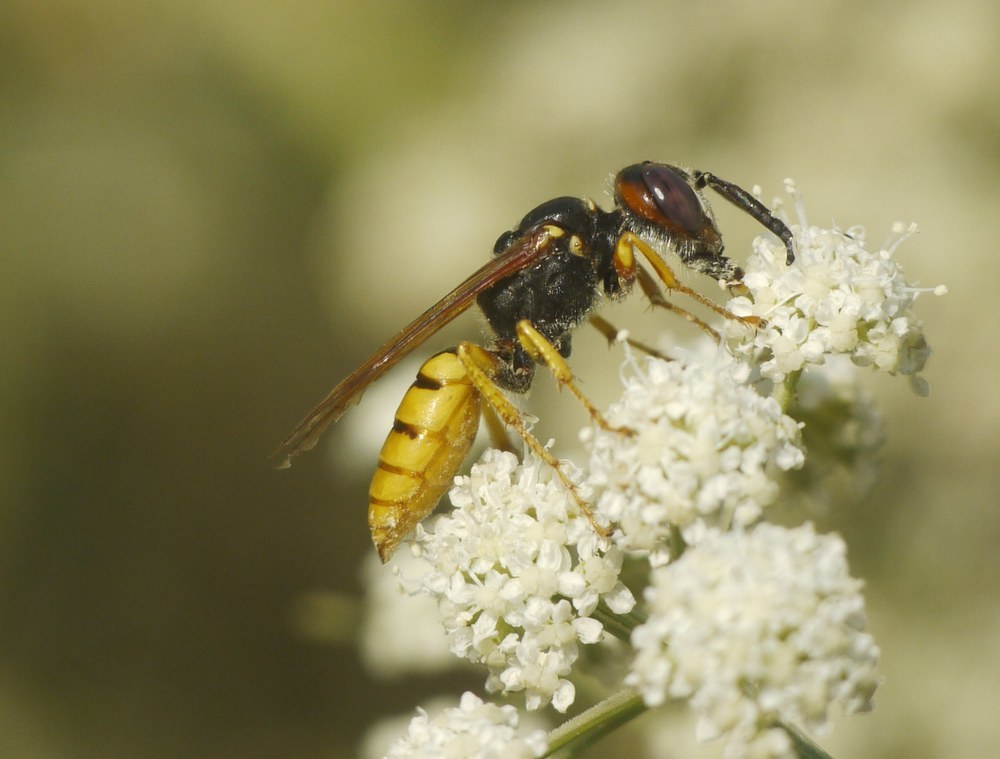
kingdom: Animalia
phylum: Arthropoda
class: Insecta
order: Hymenoptera
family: Crabronidae
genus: Philanthus
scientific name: Philanthus triangulum
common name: Bee wolf
